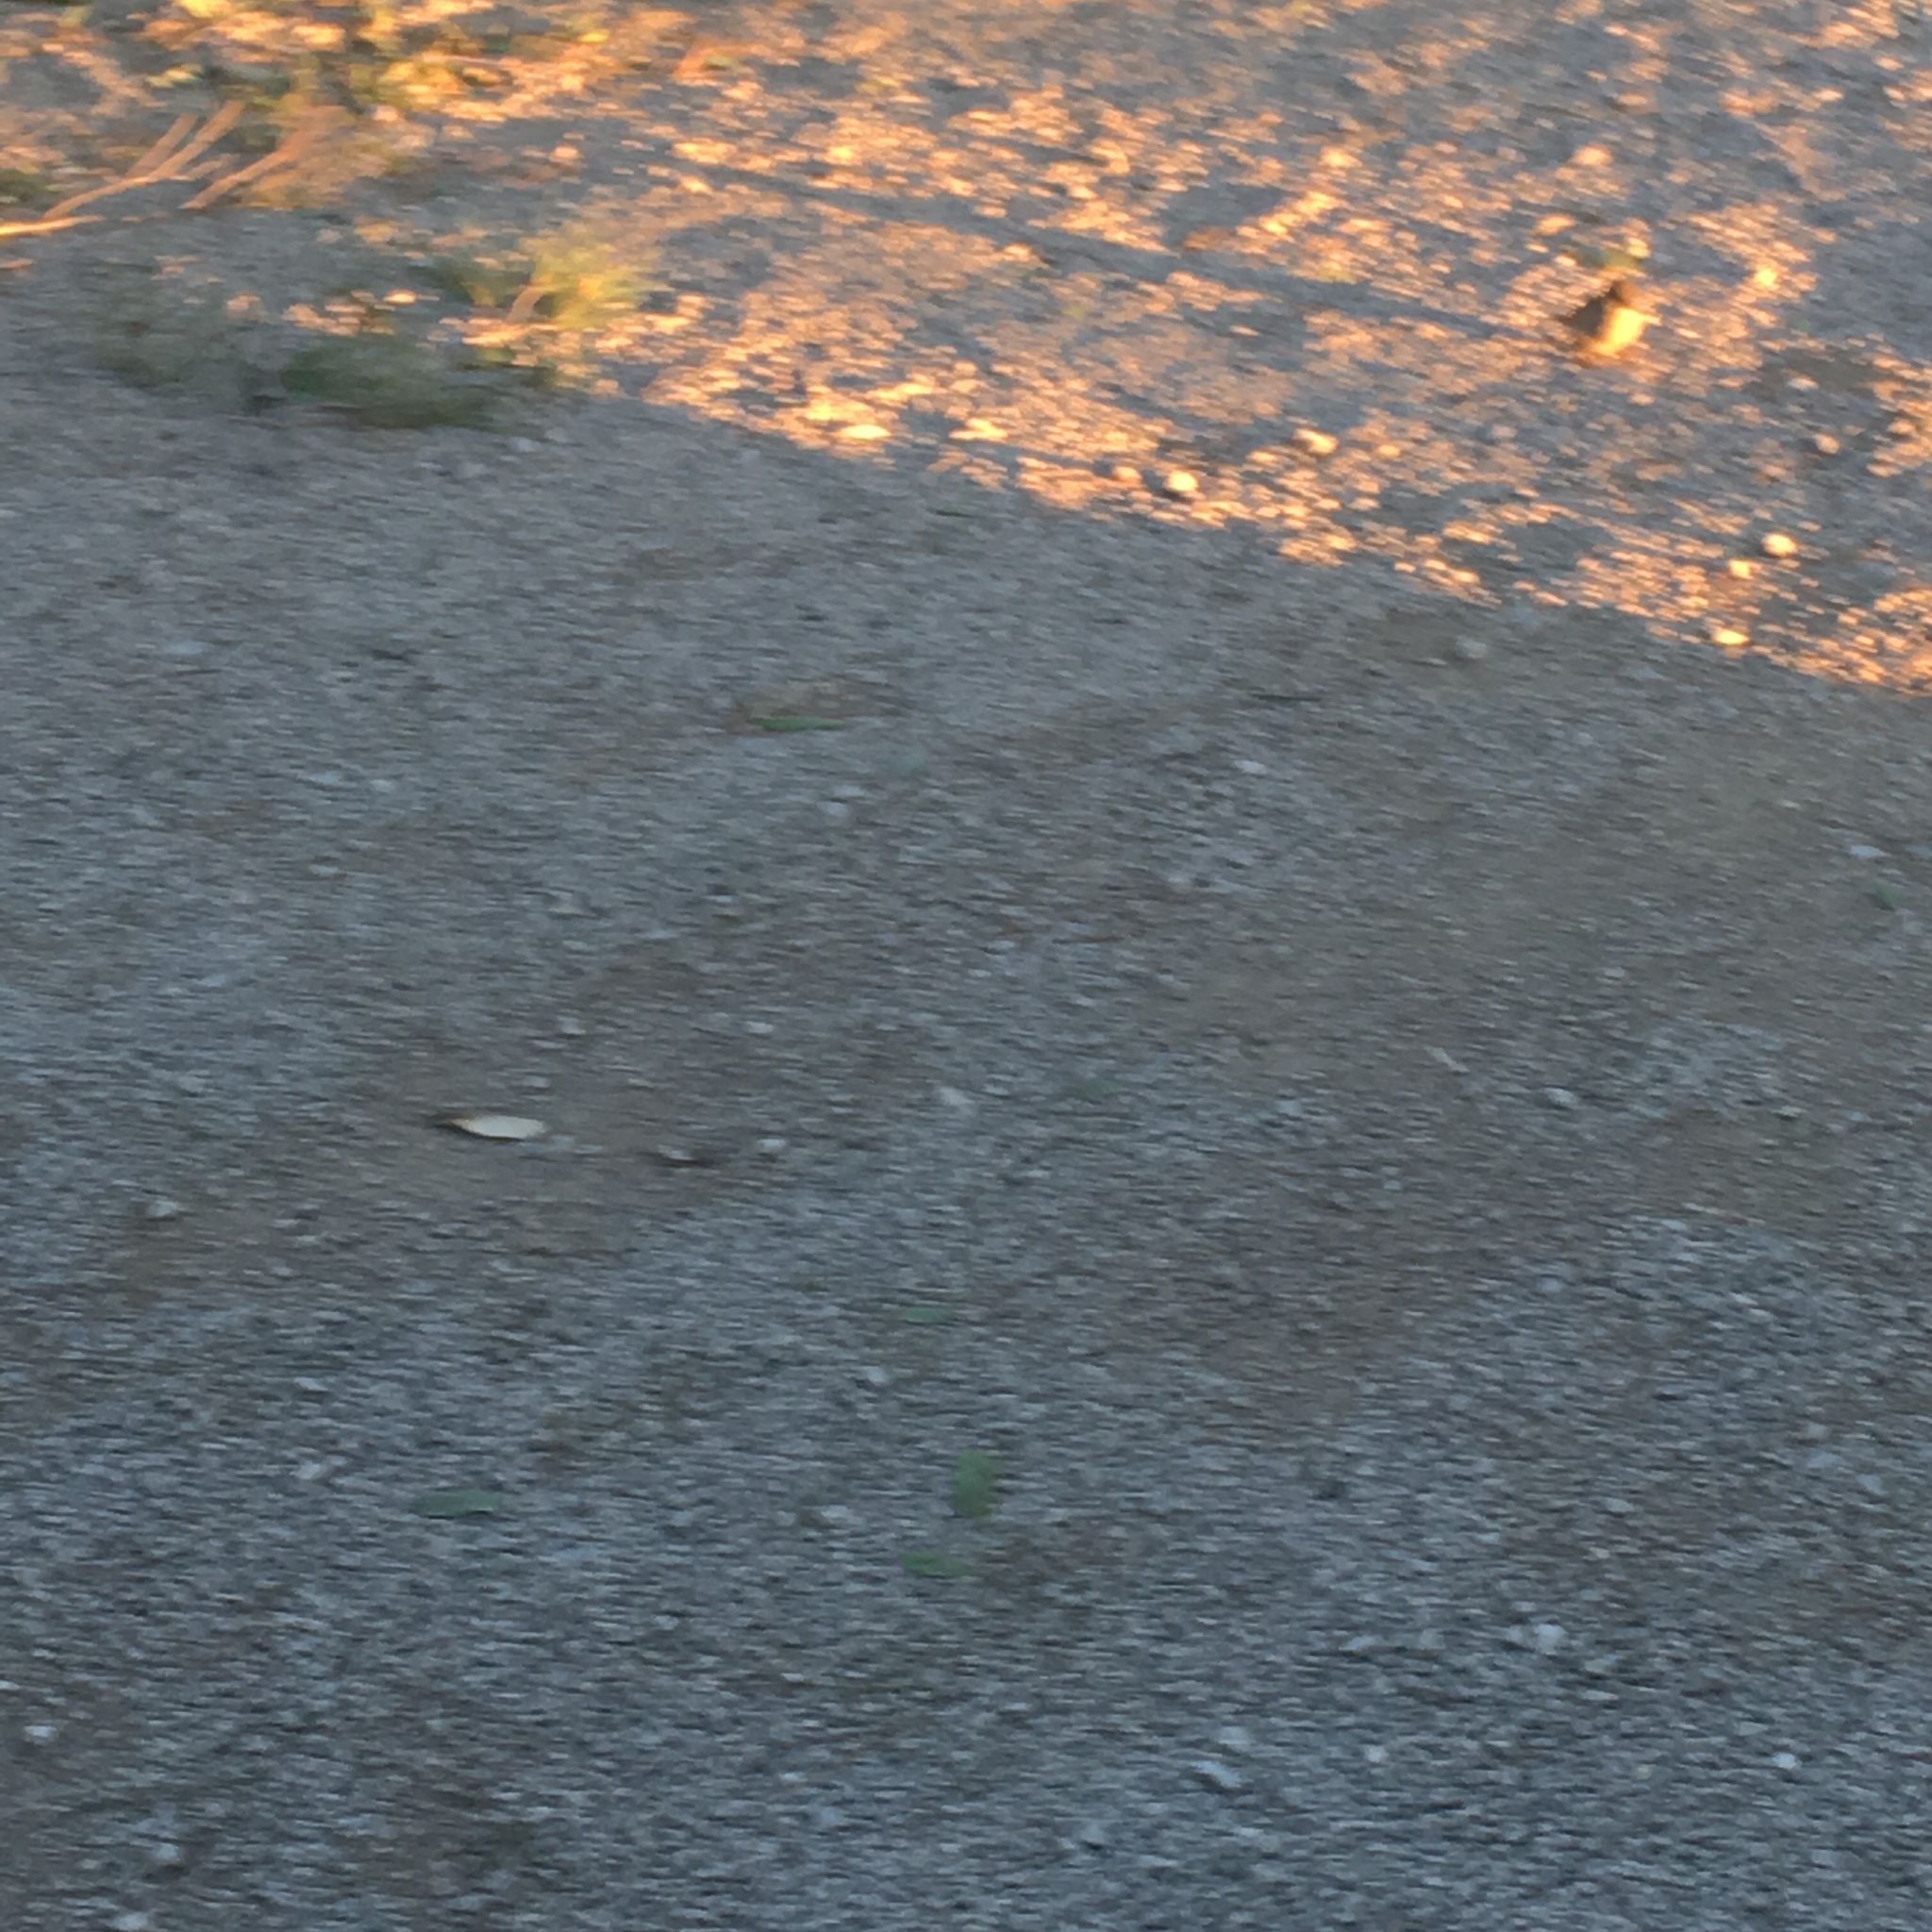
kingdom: Animalia
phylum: Chordata
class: Aves
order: Passeriformes
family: Passeridae
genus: Passer
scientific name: Passer domesticus
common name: House sparrow
